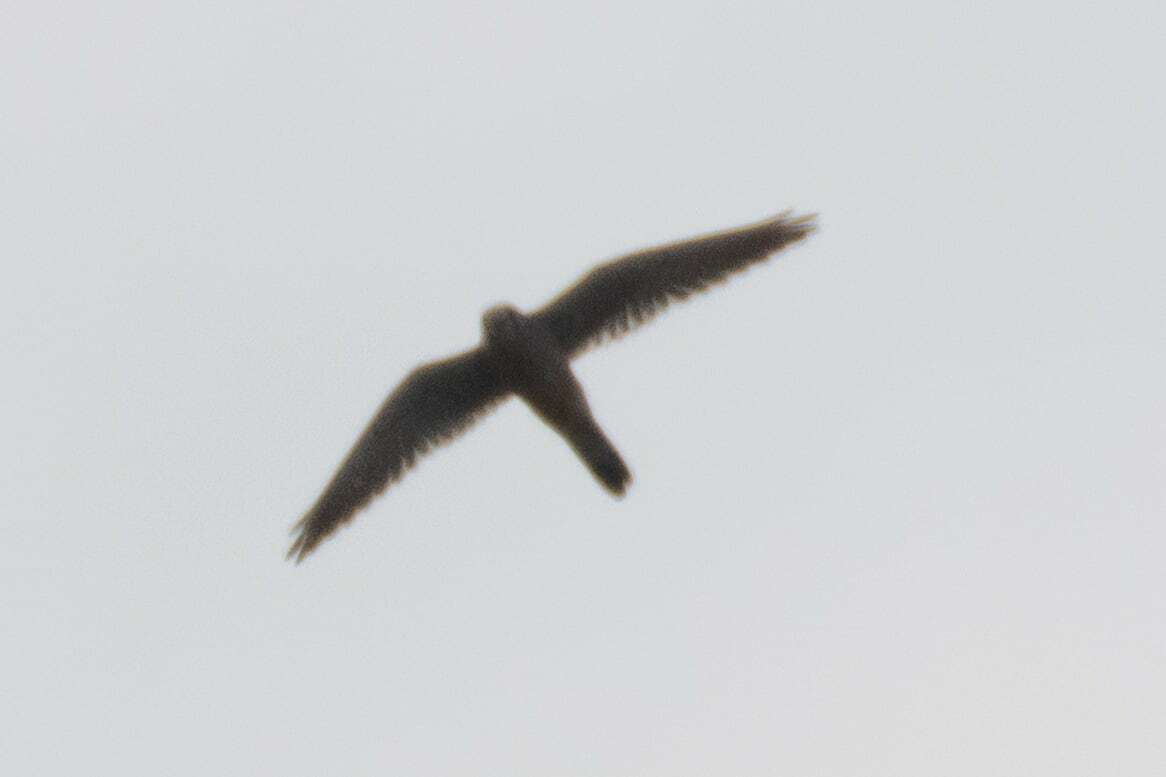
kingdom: Animalia
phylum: Chordata
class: Aves
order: Falconiformes
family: Falconidae
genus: Falco
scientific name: Falco tinnunculus
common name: Common kestrel
